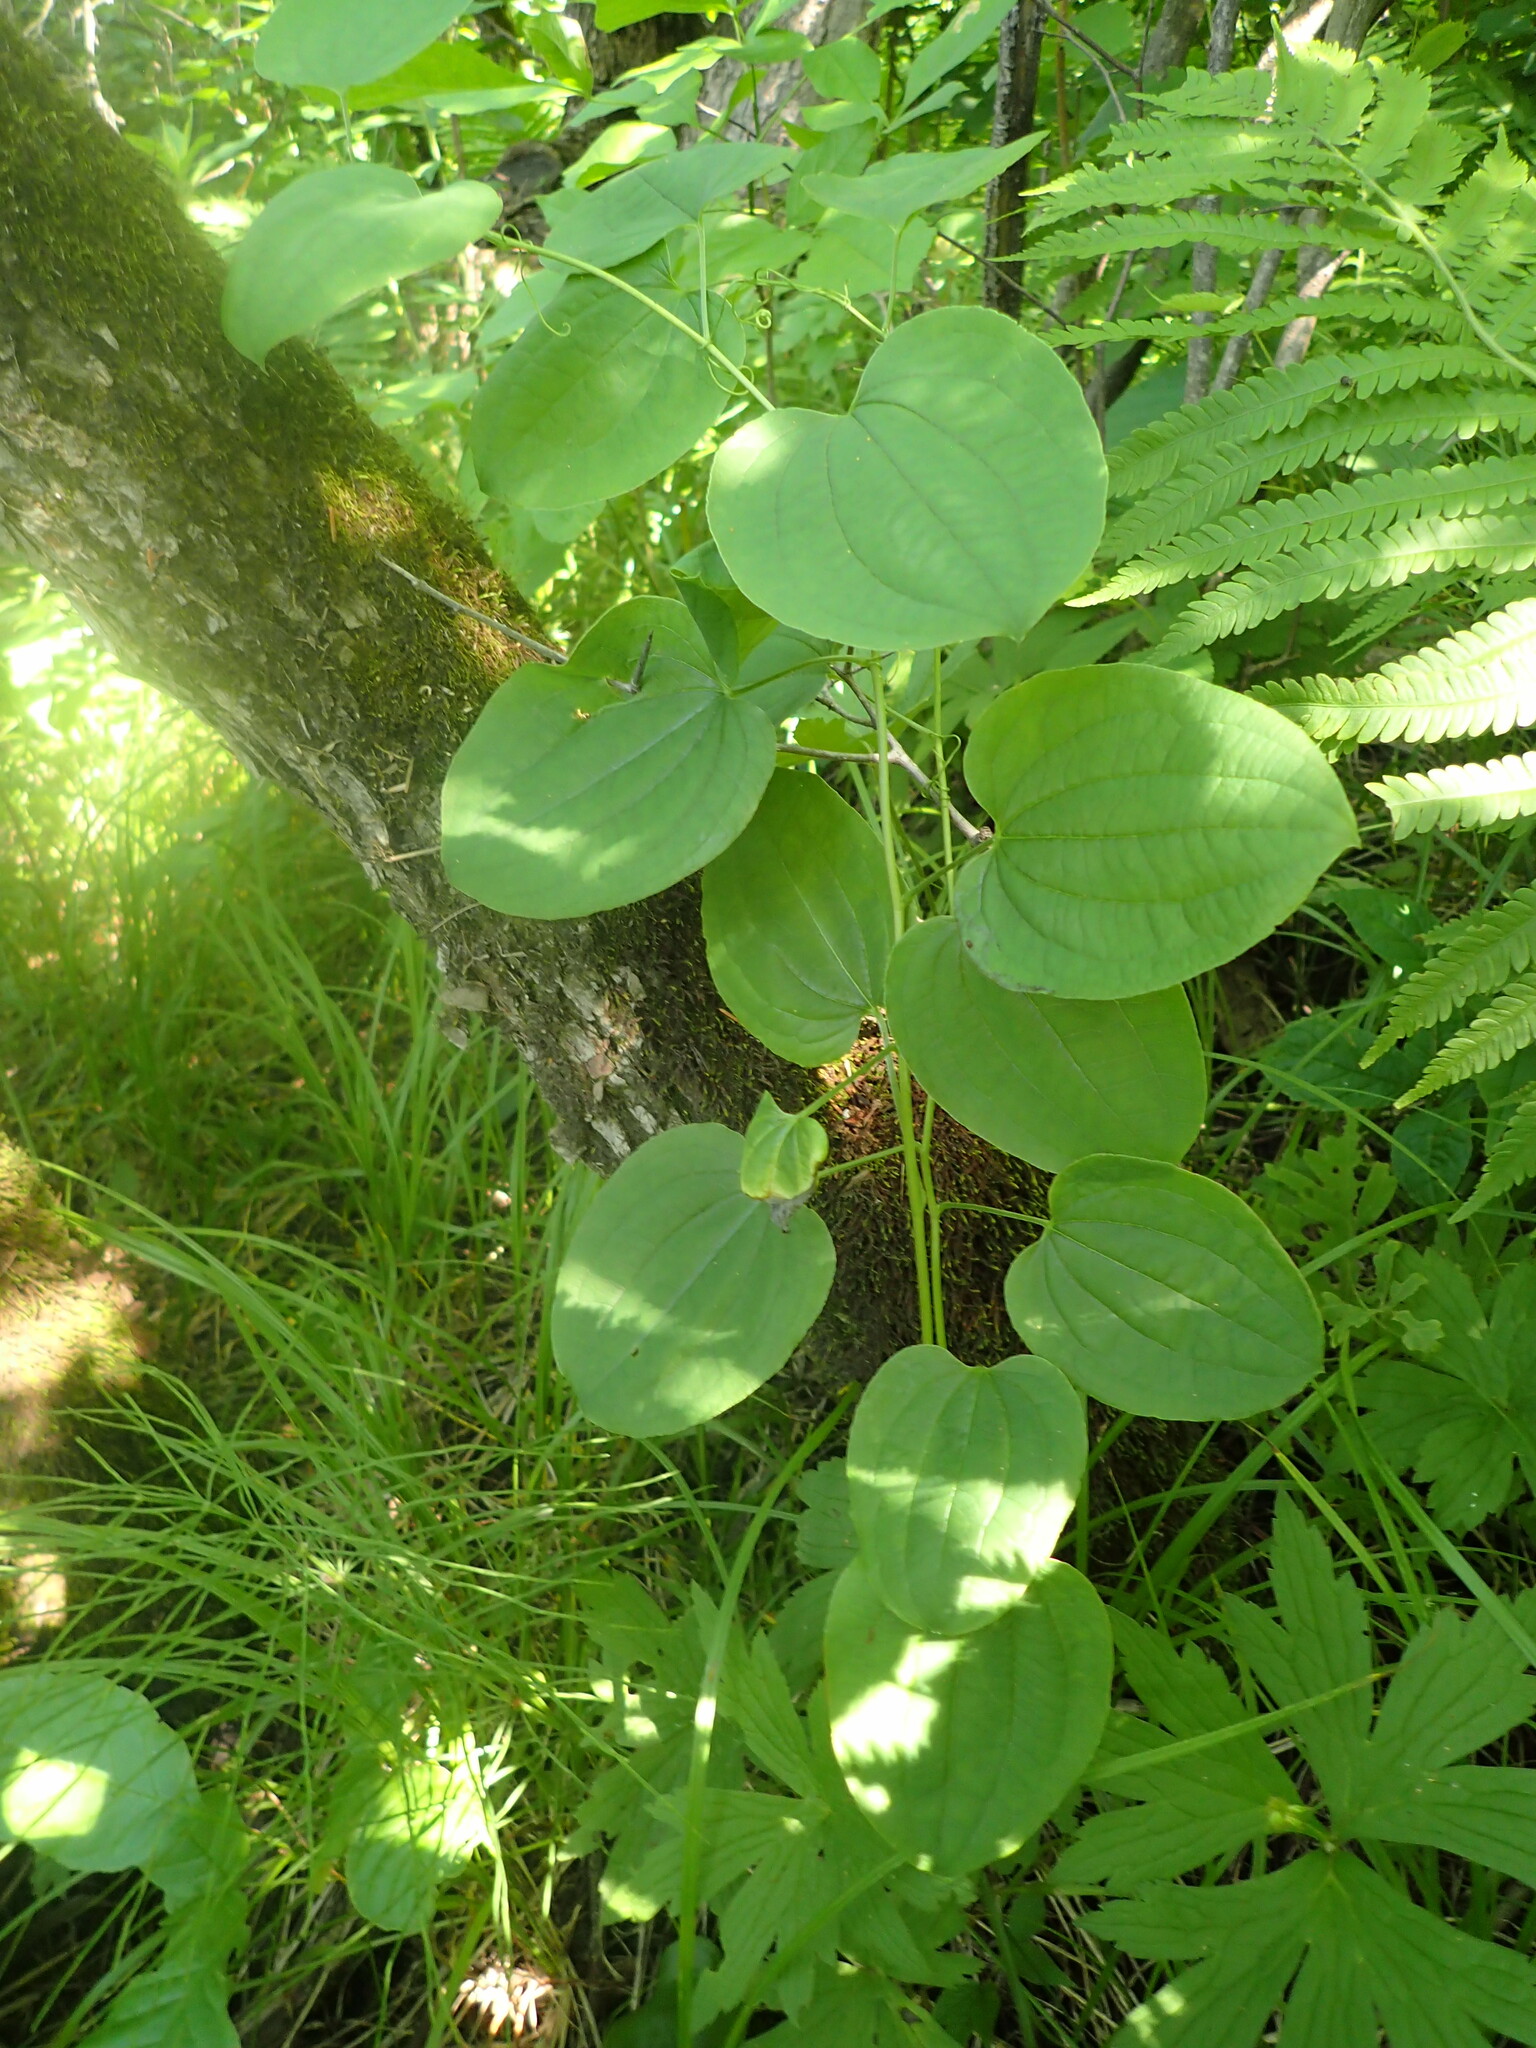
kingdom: Plantae
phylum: Tracheophyta
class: Liliopsida
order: Liliales
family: Smilacaceae
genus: Smilax
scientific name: Smilax lasioneura
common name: Blue ridge carrionflower
